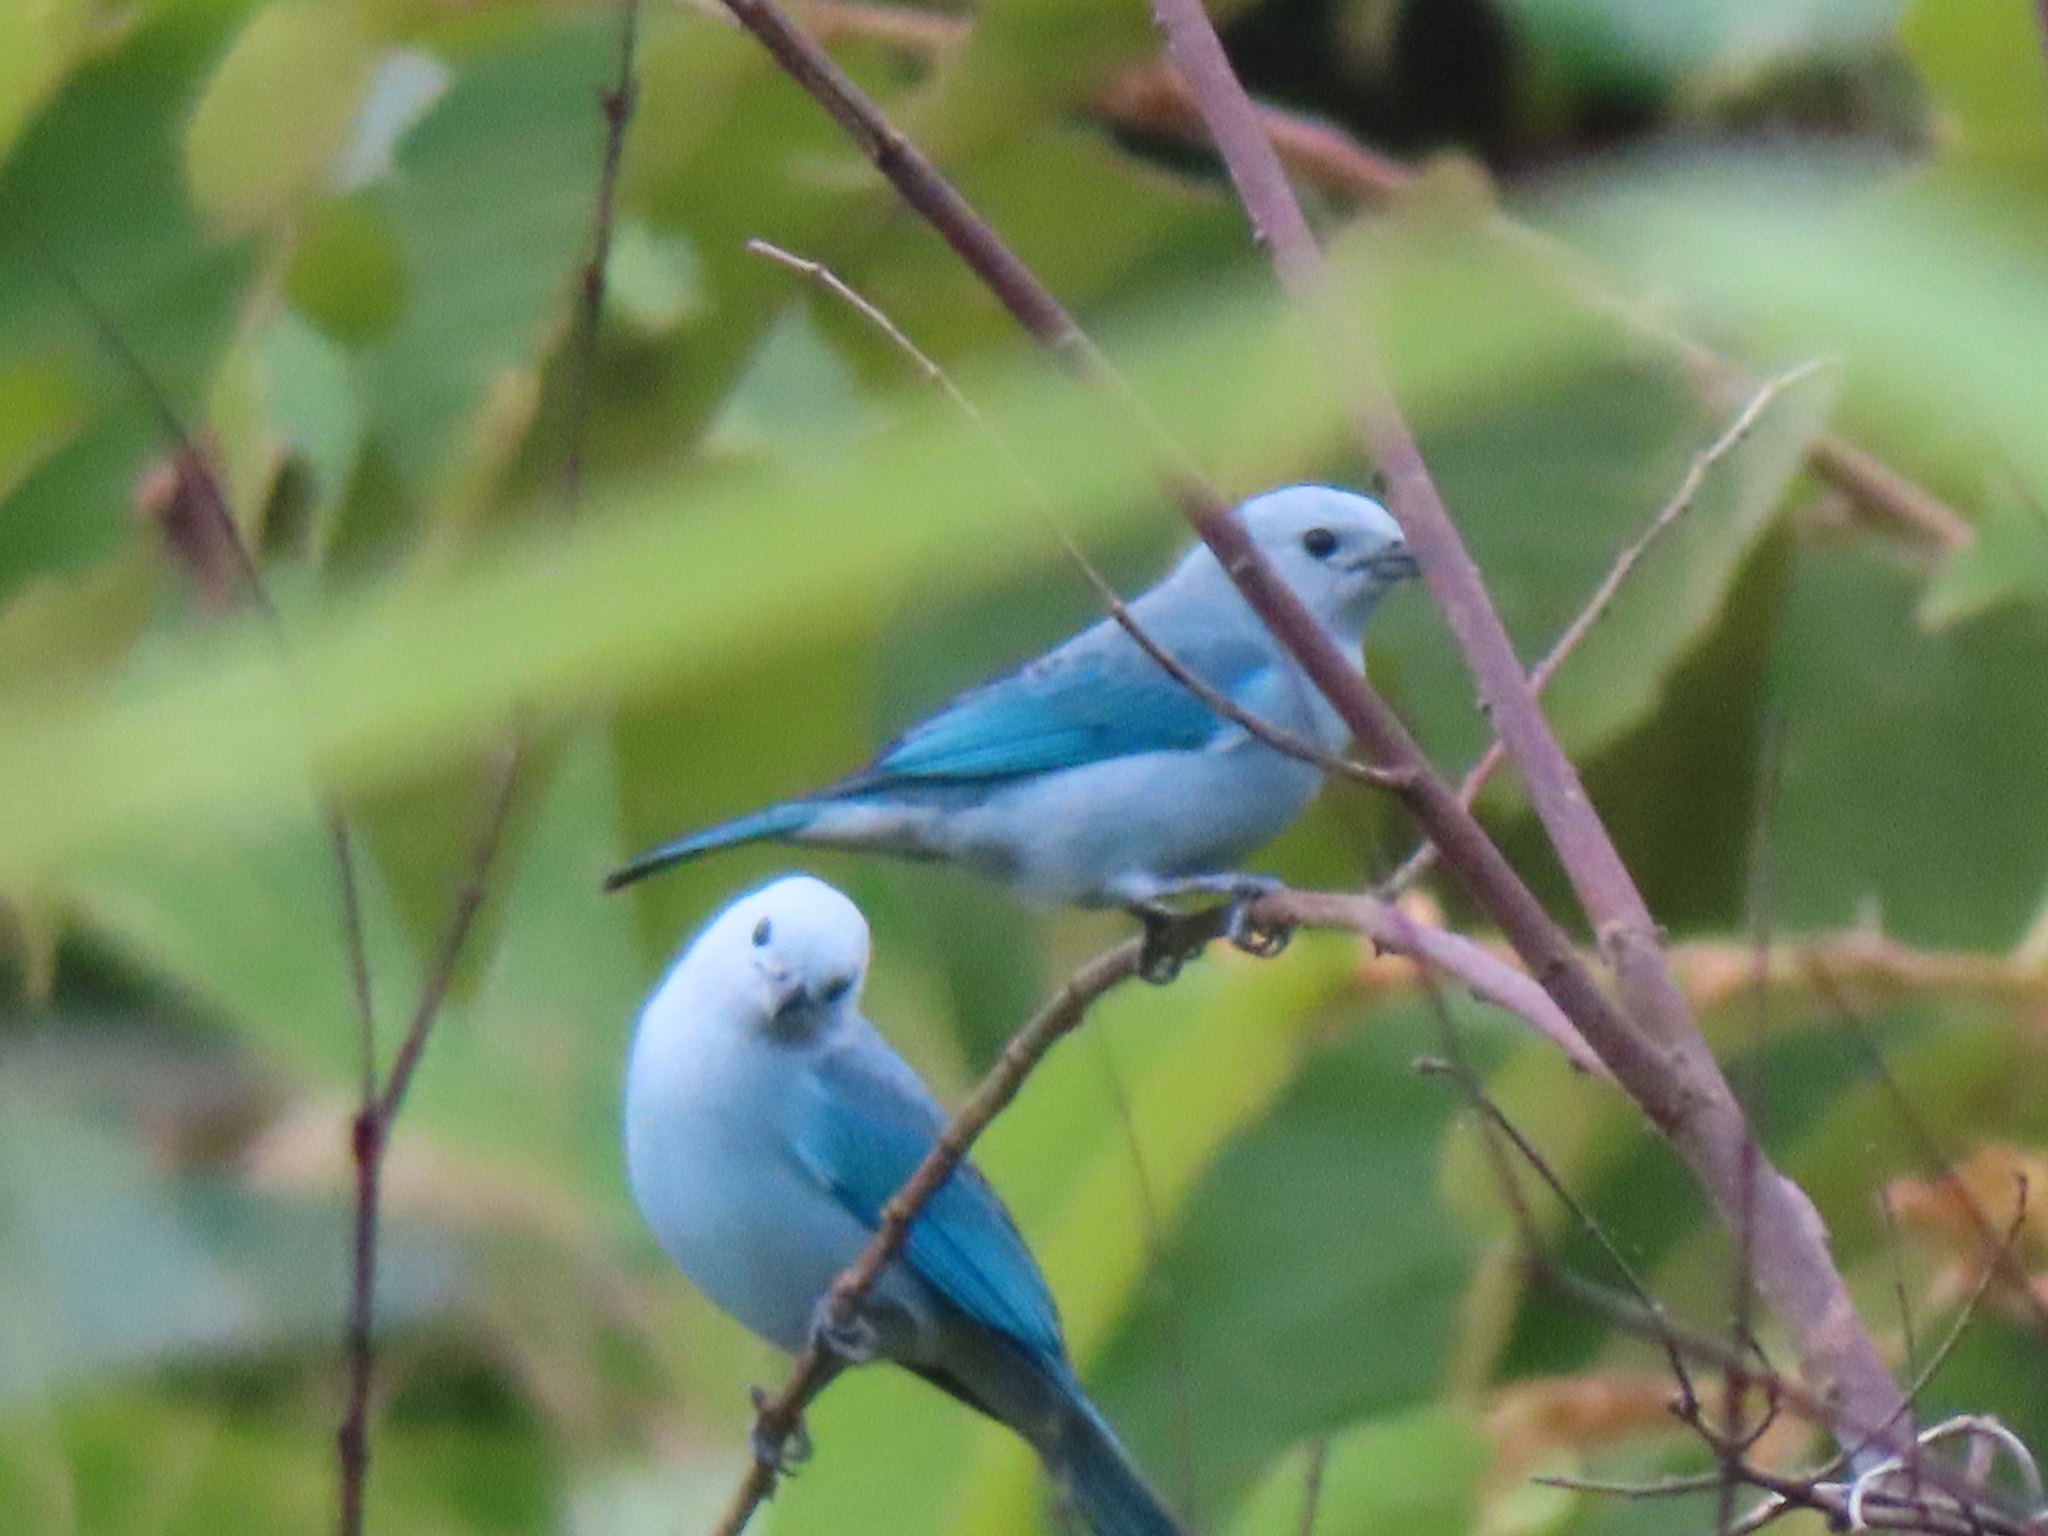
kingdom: Animalia
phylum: Chordata
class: Aves
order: Passeriformes
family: Thraupidae
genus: Thraupis
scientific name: Thraupis episcopus
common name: Blue-grey tanager
